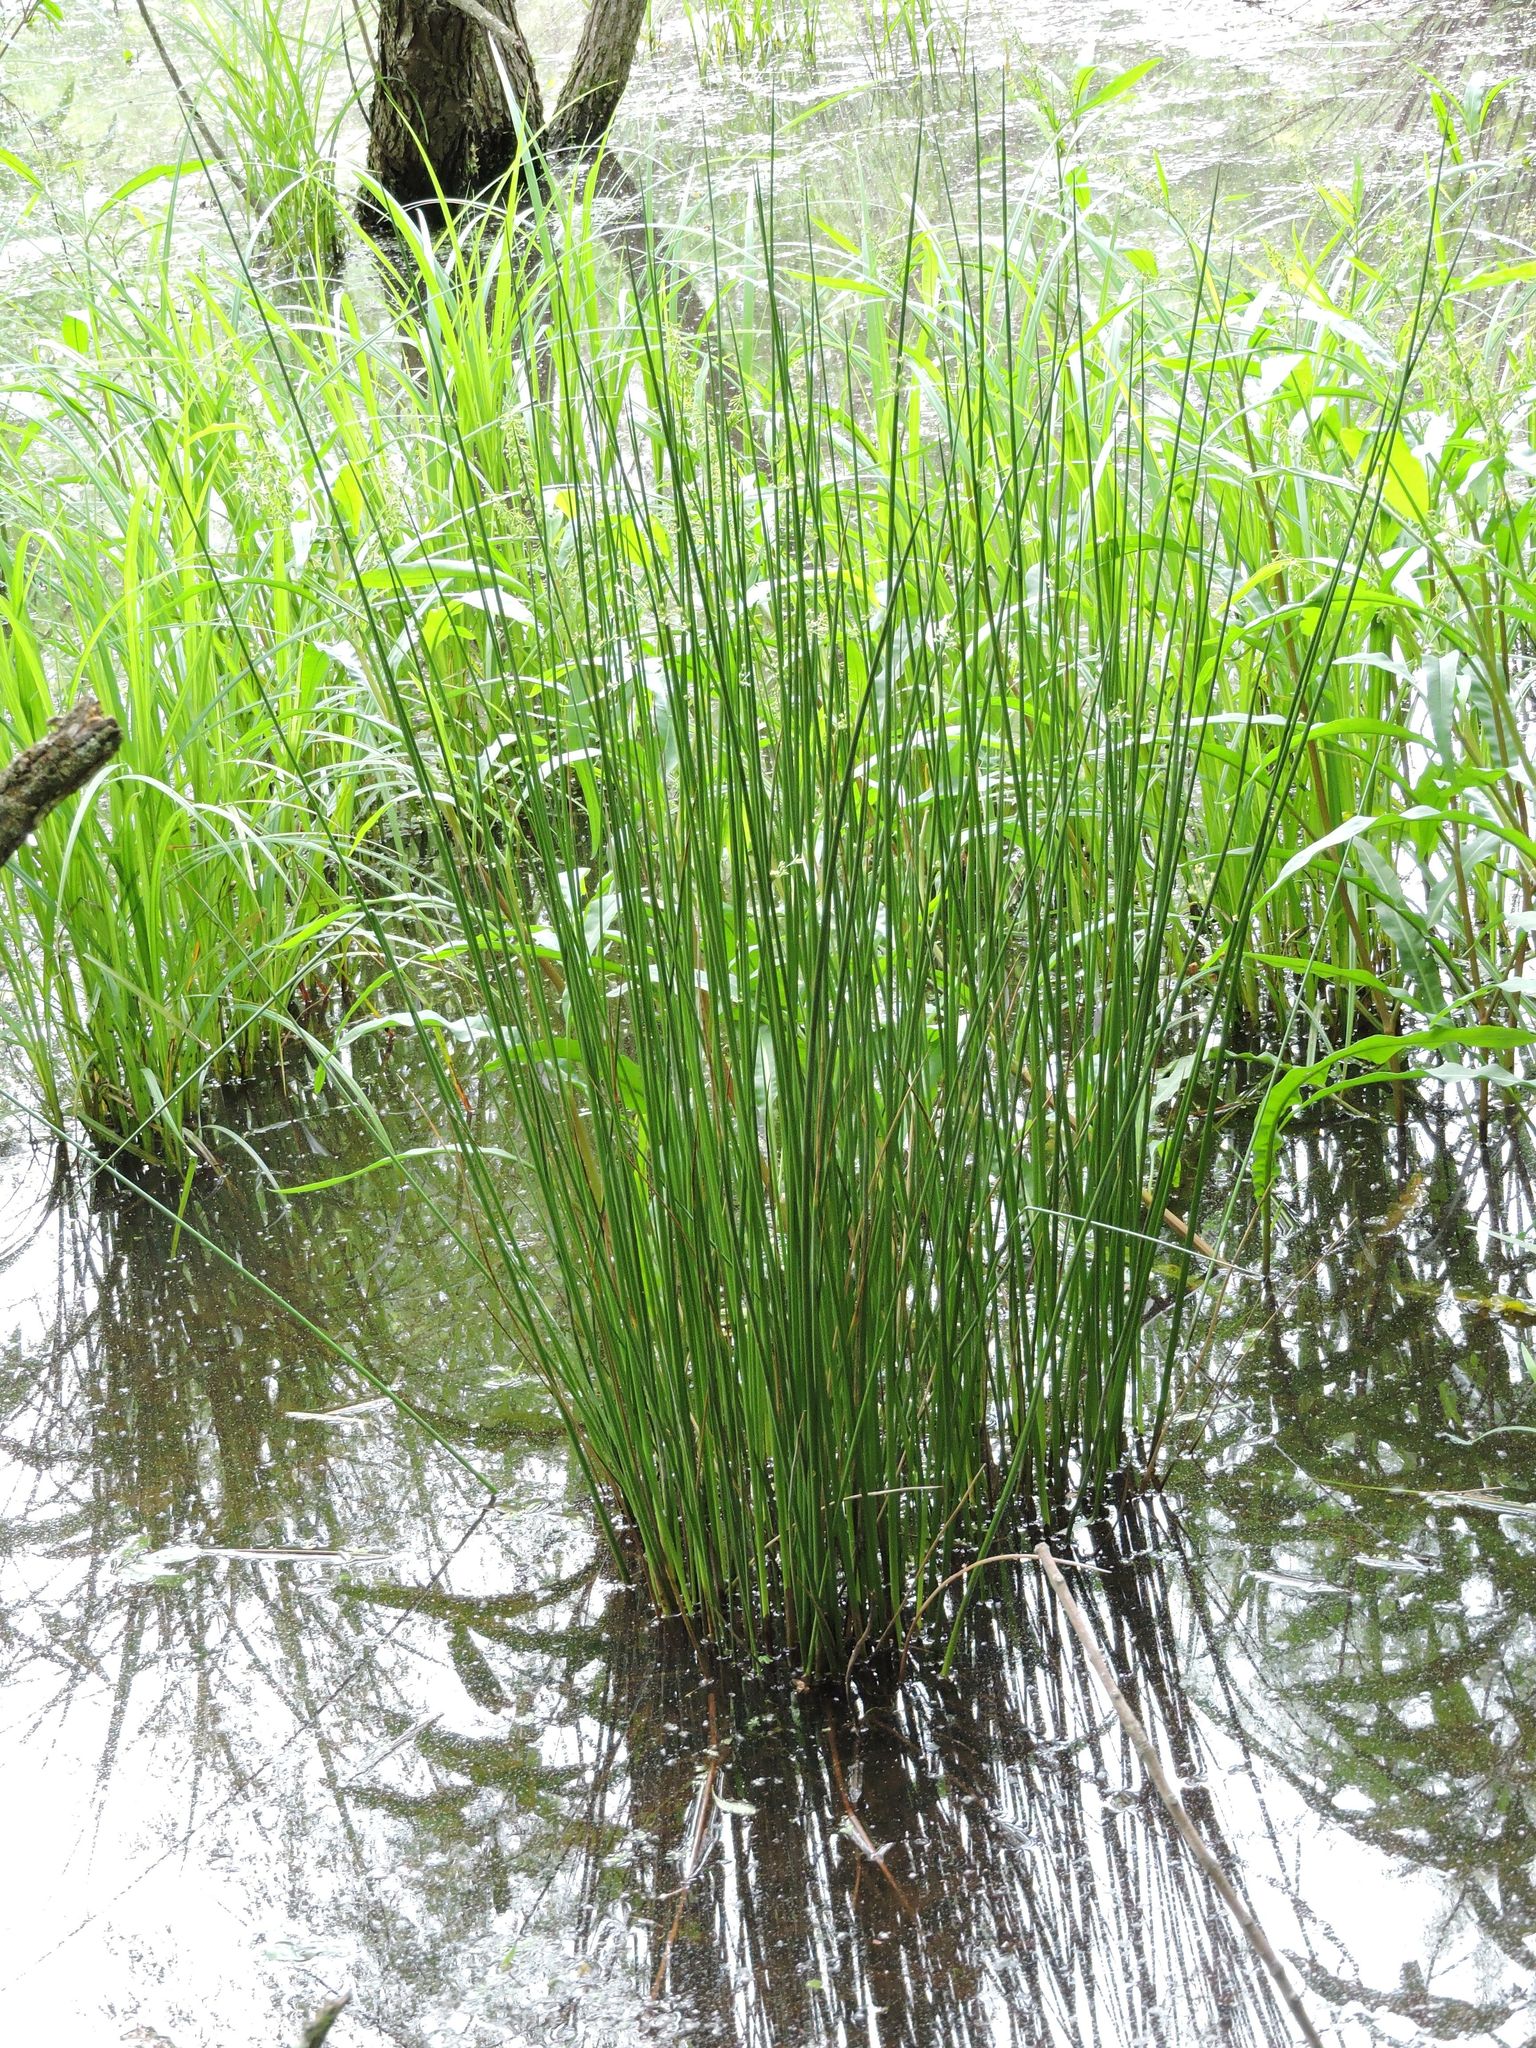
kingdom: Plantae
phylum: Tracheophyta
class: Liliopsida
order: Poales
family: Juncaceae
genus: Juncus
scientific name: Juncus effusus
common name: Soft rush
